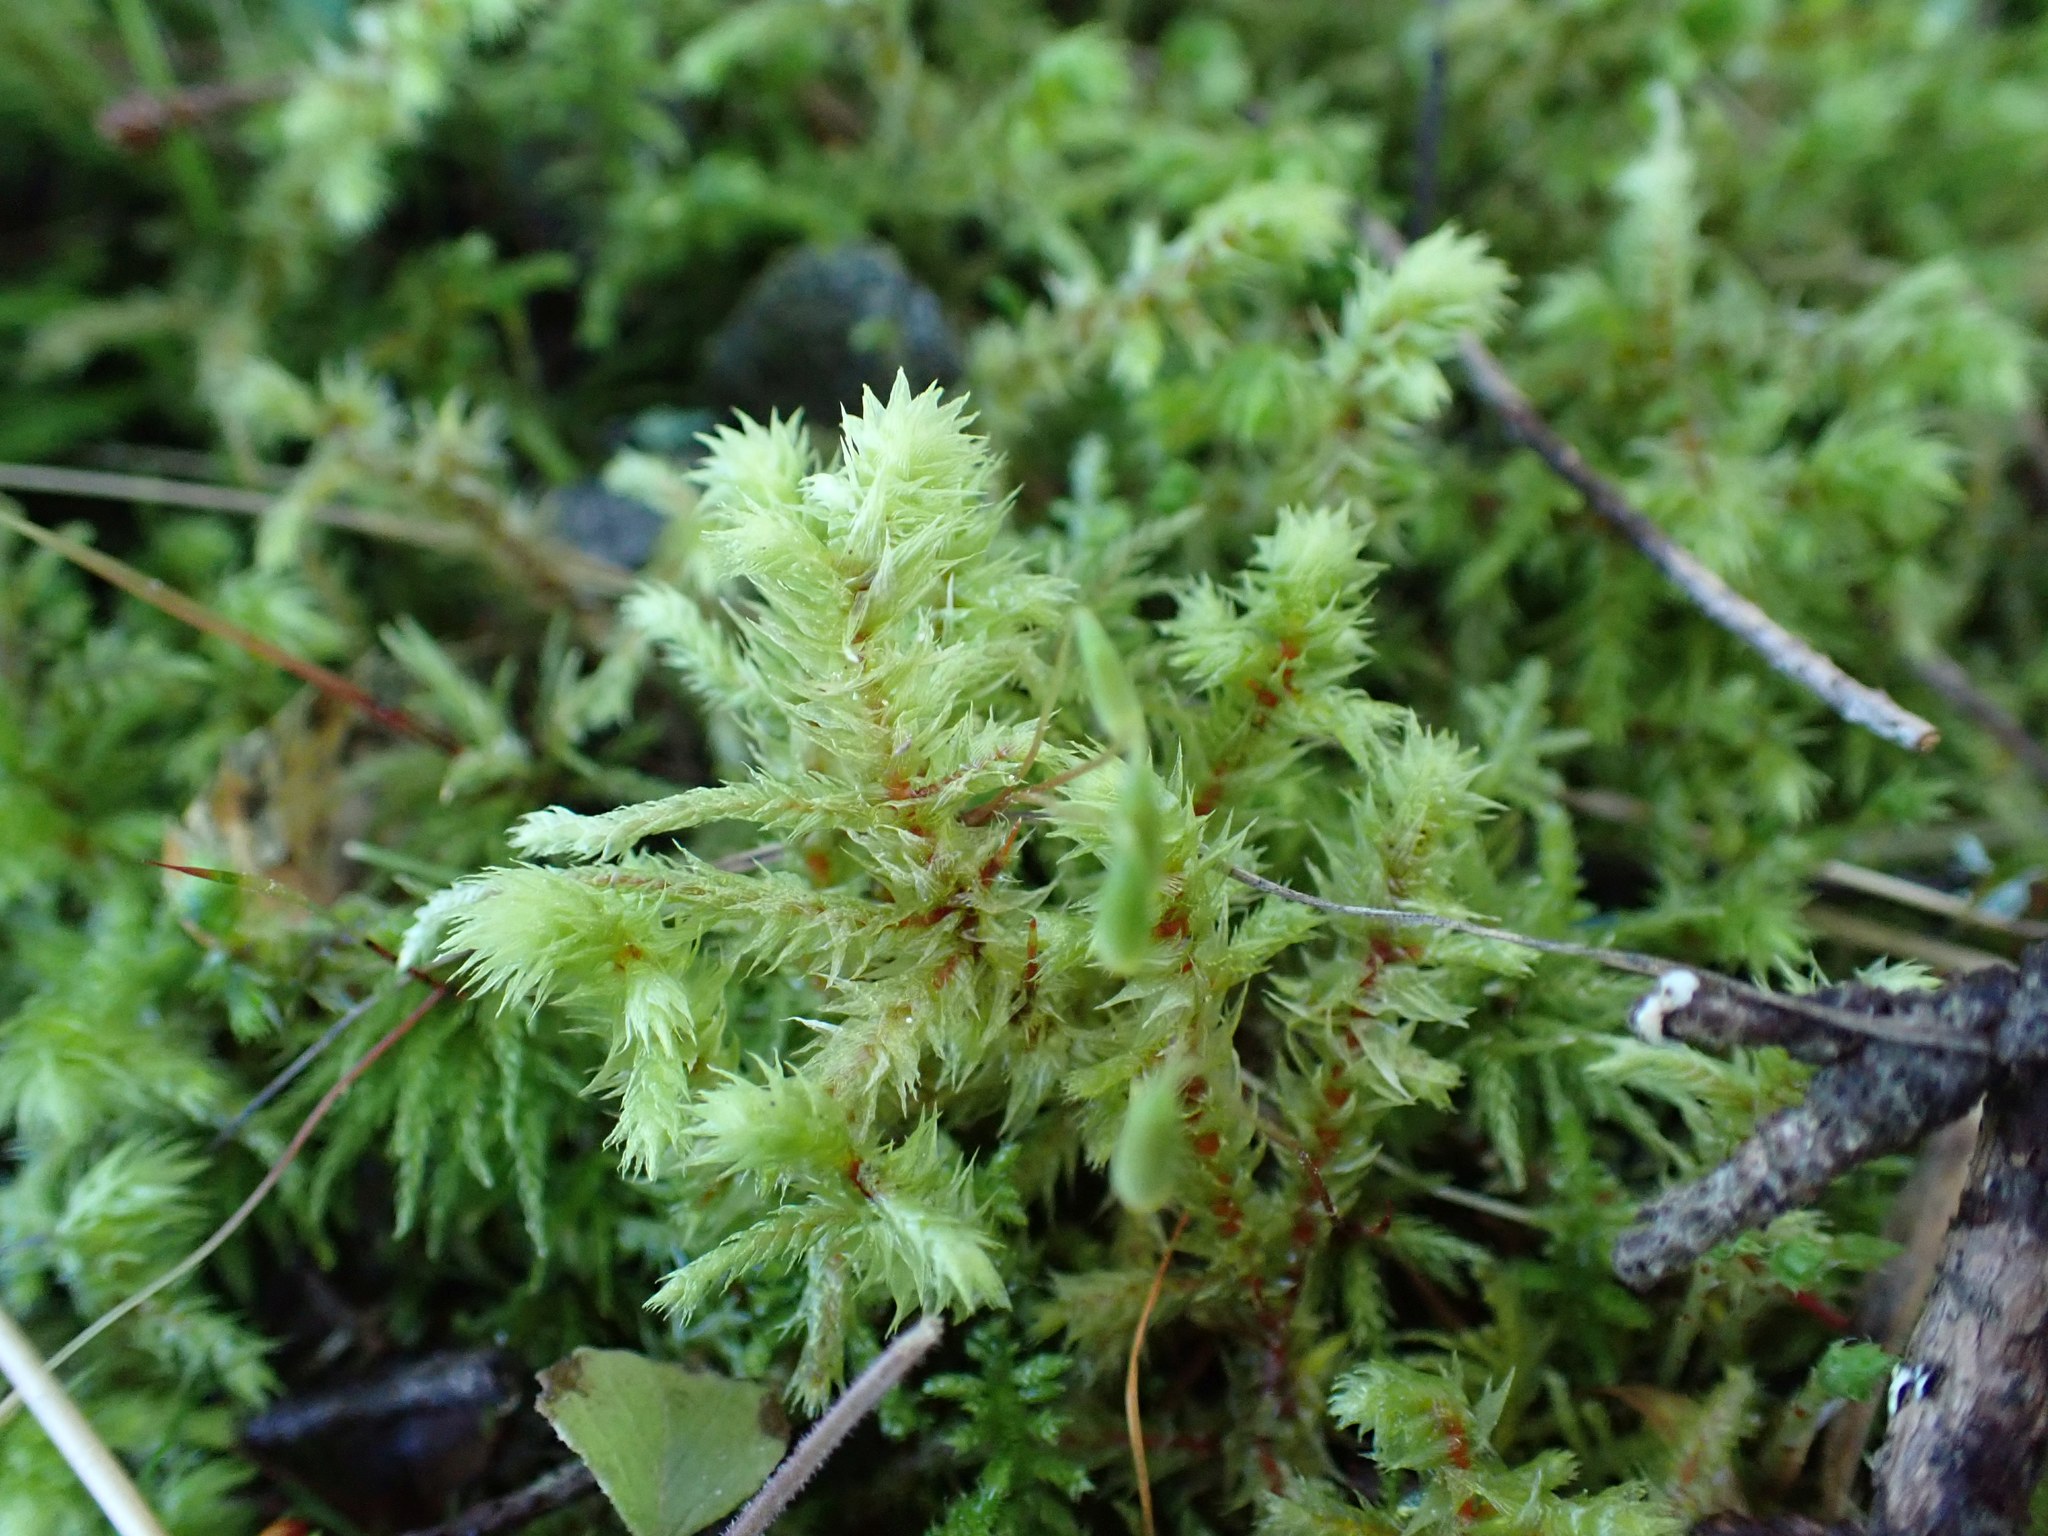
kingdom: Plantae
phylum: Bryophyta
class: Bryopsida
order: Hypnales
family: Hylocomiaceae
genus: Hylocomiadelphus
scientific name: Hylocomiadelphus triquetrus
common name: Rough goose neck moss
